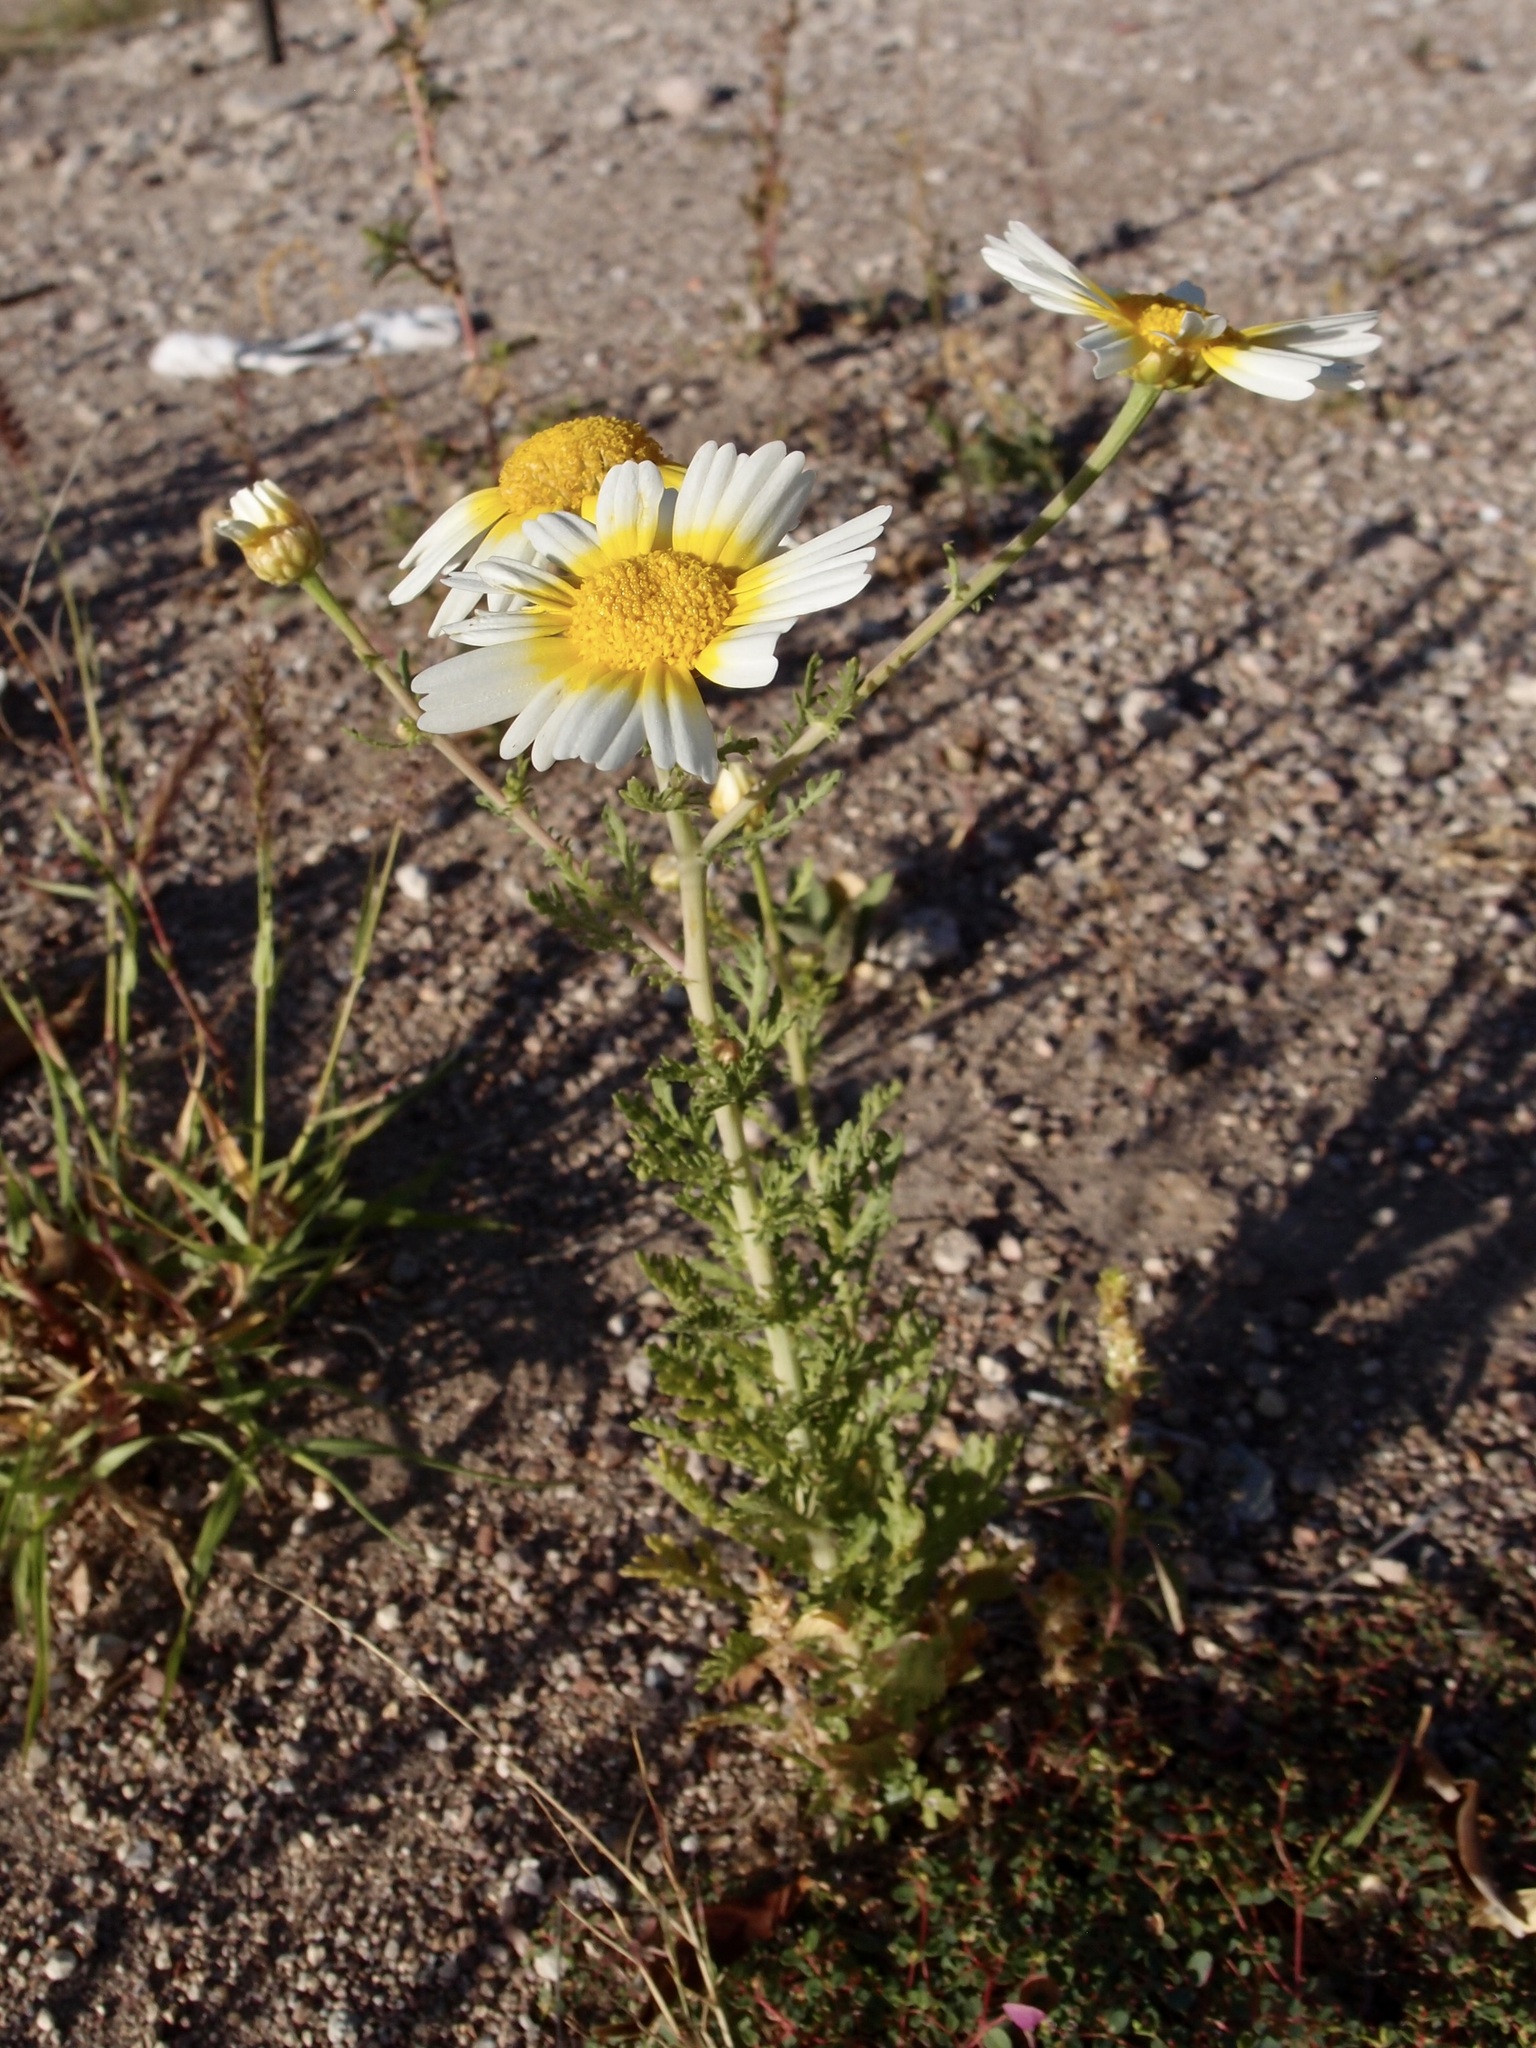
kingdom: Plantae
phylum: Tracheophyta
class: Magnoliopsida
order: Asterales
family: Asteraceae
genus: Glebionis
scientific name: Glebionis coronaria
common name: Crowndaisy
